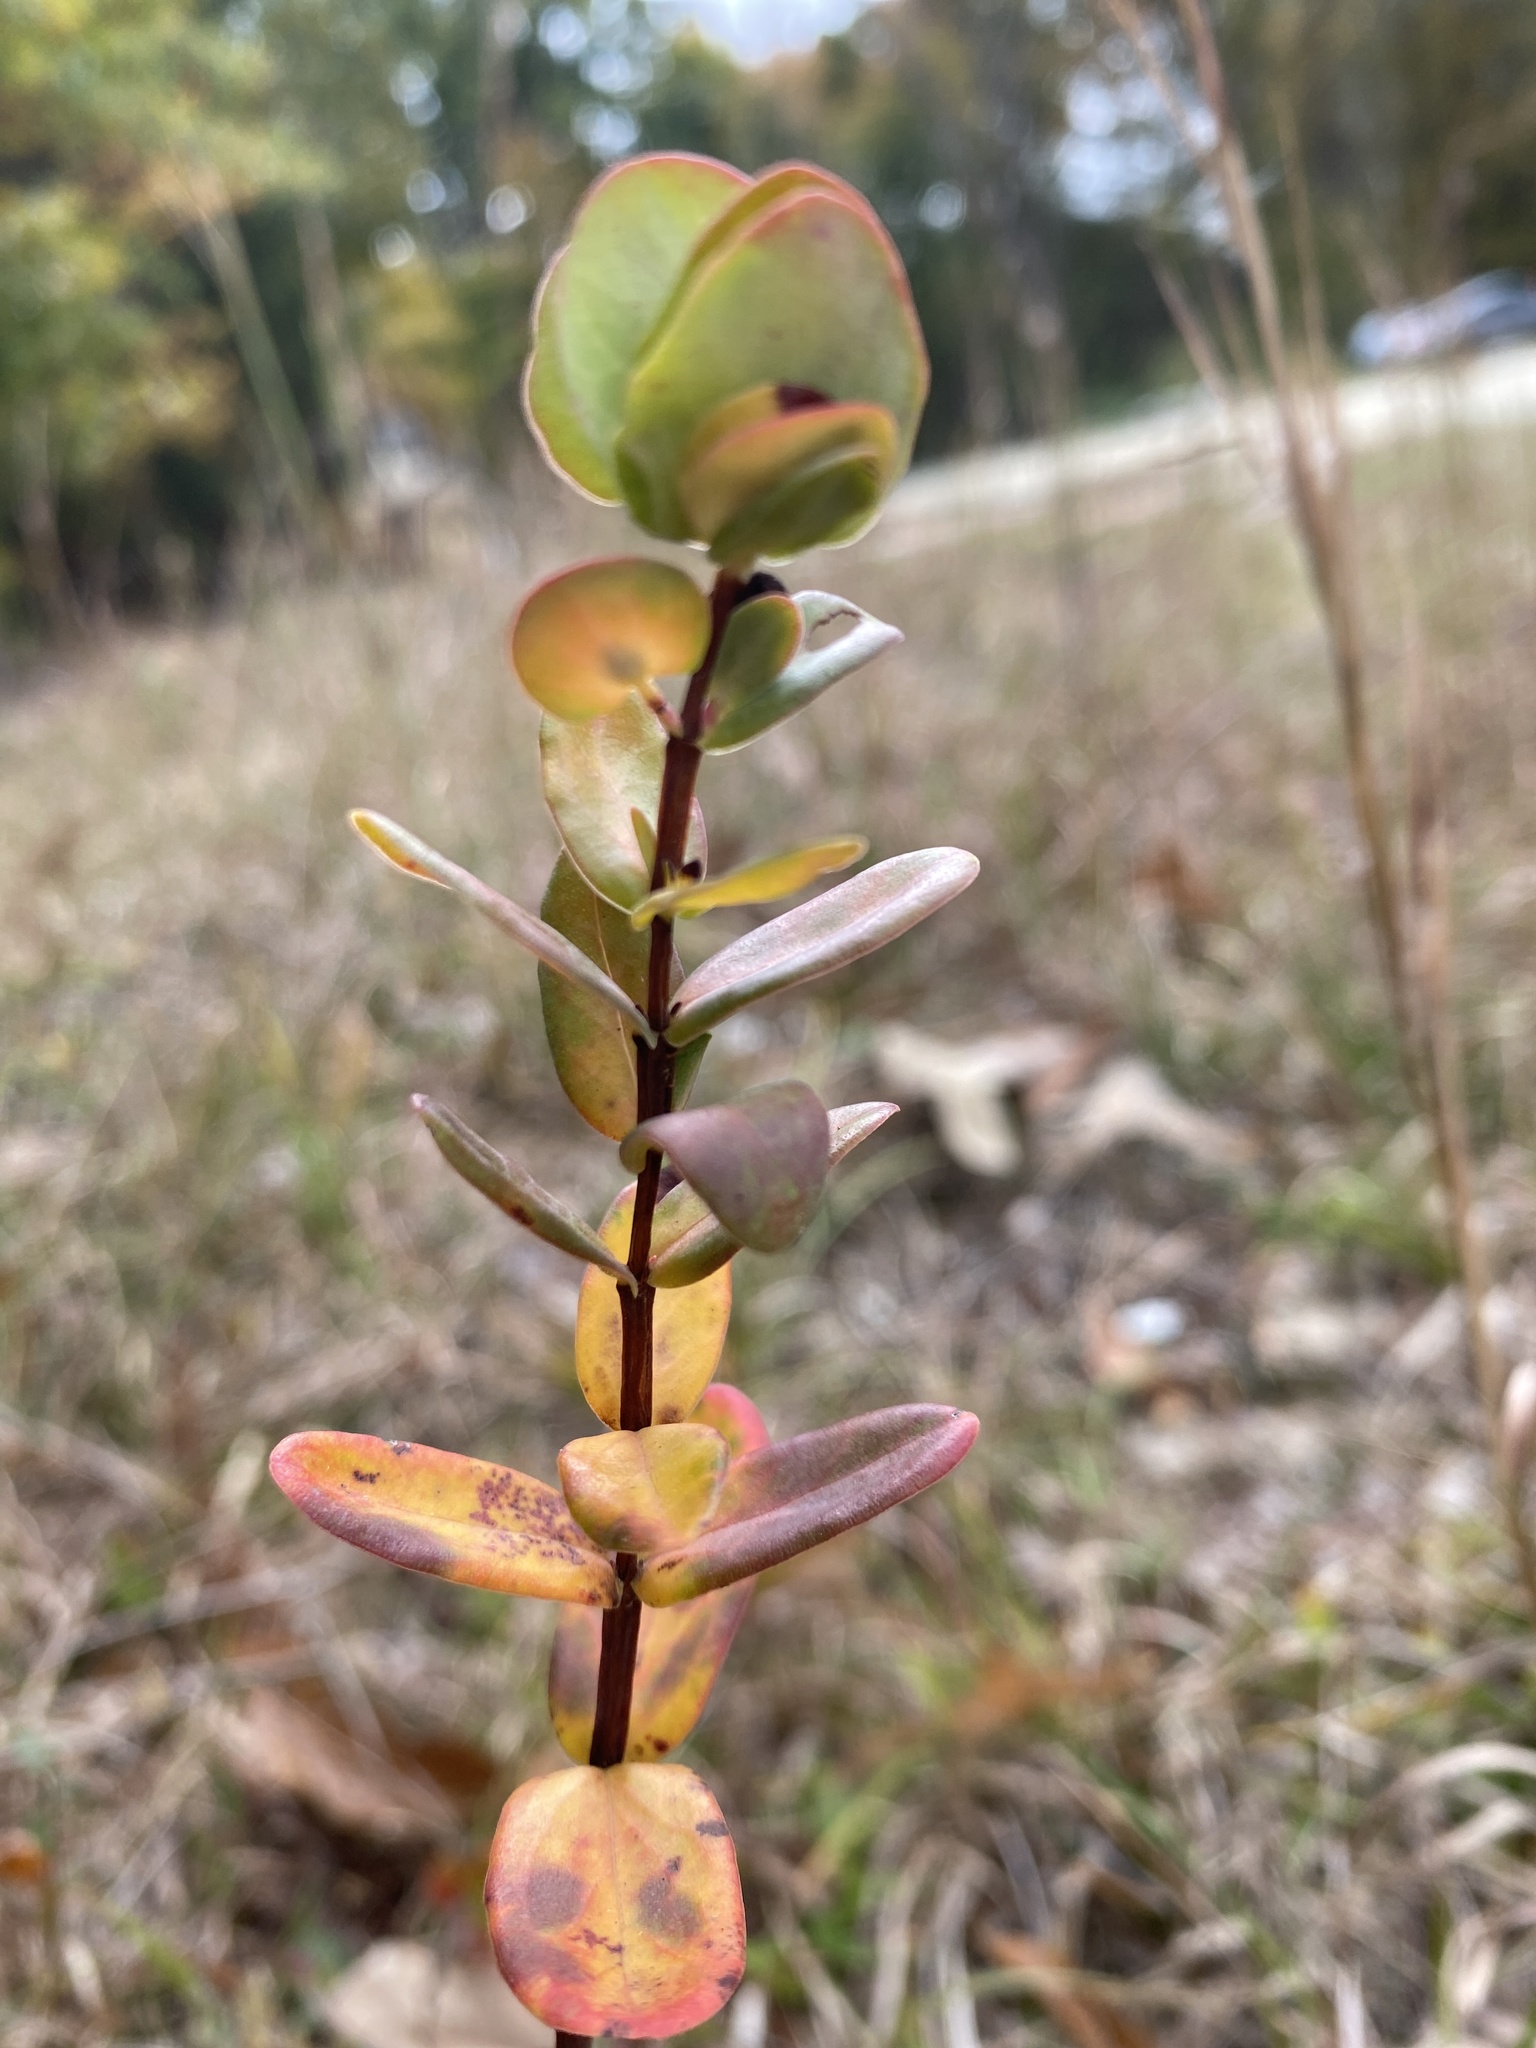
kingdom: Plantae
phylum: Tracheophyta
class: Magnoliopsida
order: Malpighiales
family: Hypericaceae
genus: Hypericum
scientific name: Hypericum crux-andreae
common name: St.-peter's-wort
